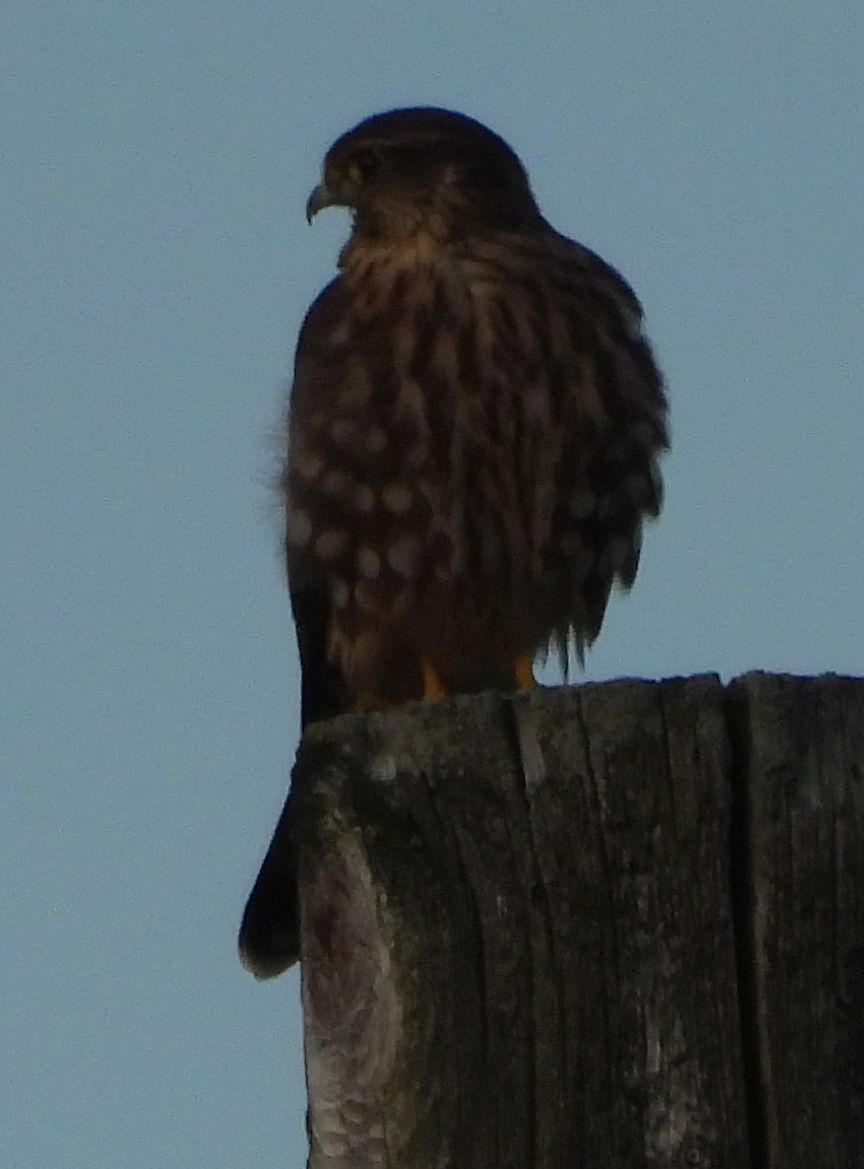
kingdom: Animalia
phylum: Chordata
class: Aves
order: Falconiformes
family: Falconidae
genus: Falco
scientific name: Falco columbarius
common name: Merlin
